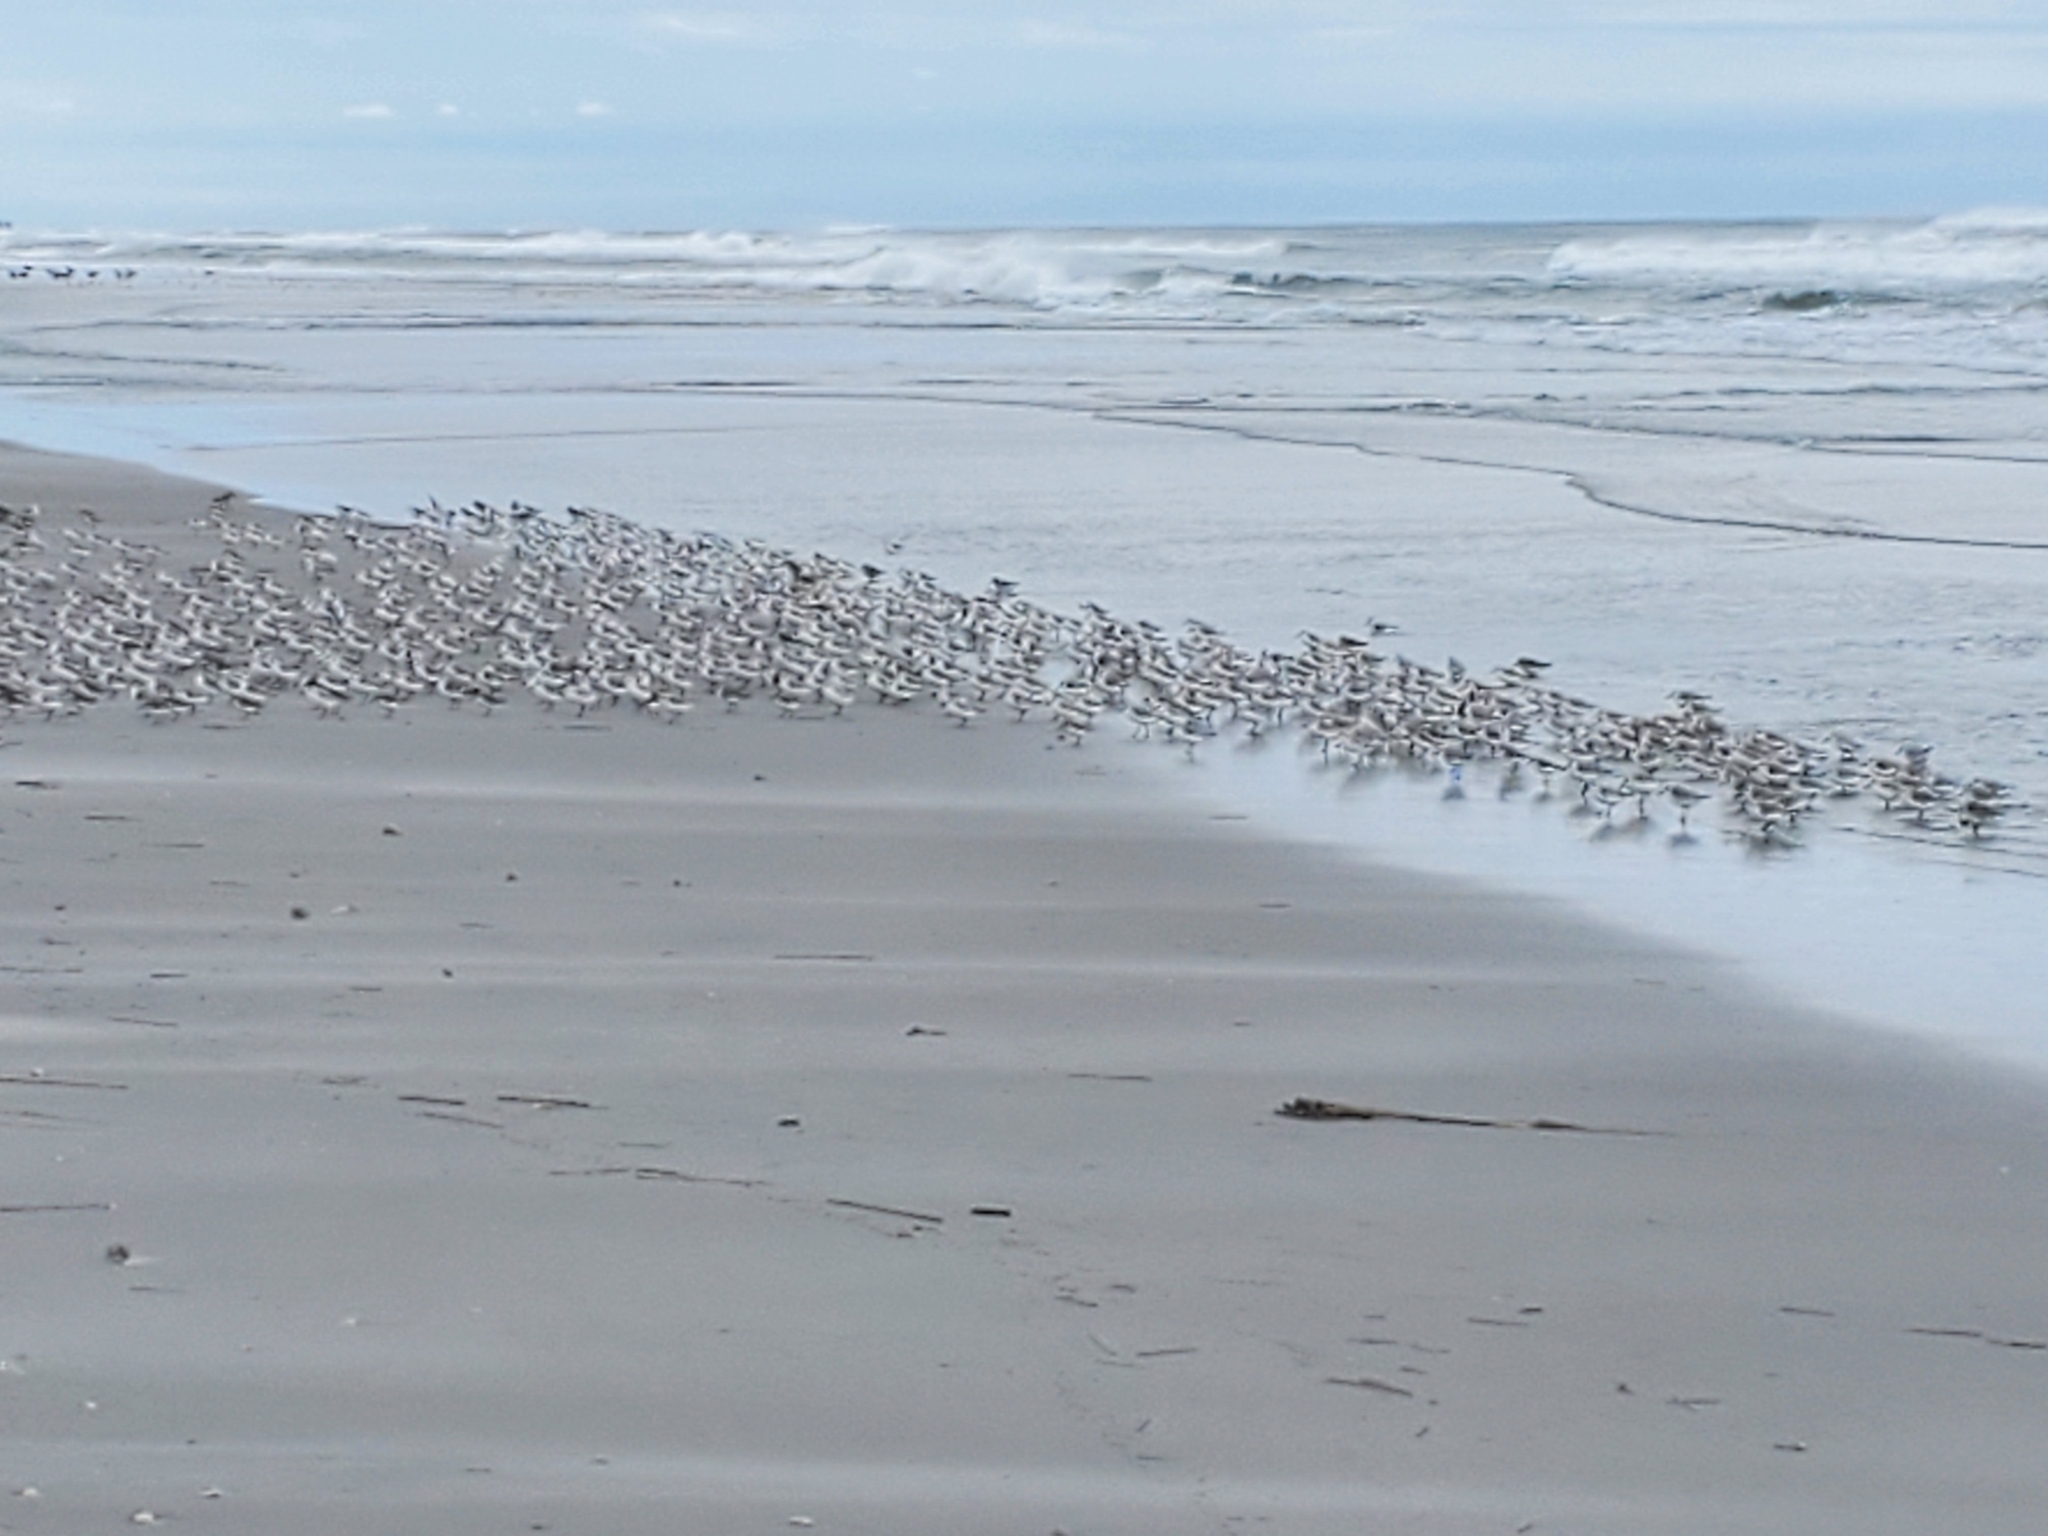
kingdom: Animalia
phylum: Chordata
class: Aves
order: Charadriiformes
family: Scolopacidae
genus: Calidris
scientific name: Calidris alpina
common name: Dunlin
